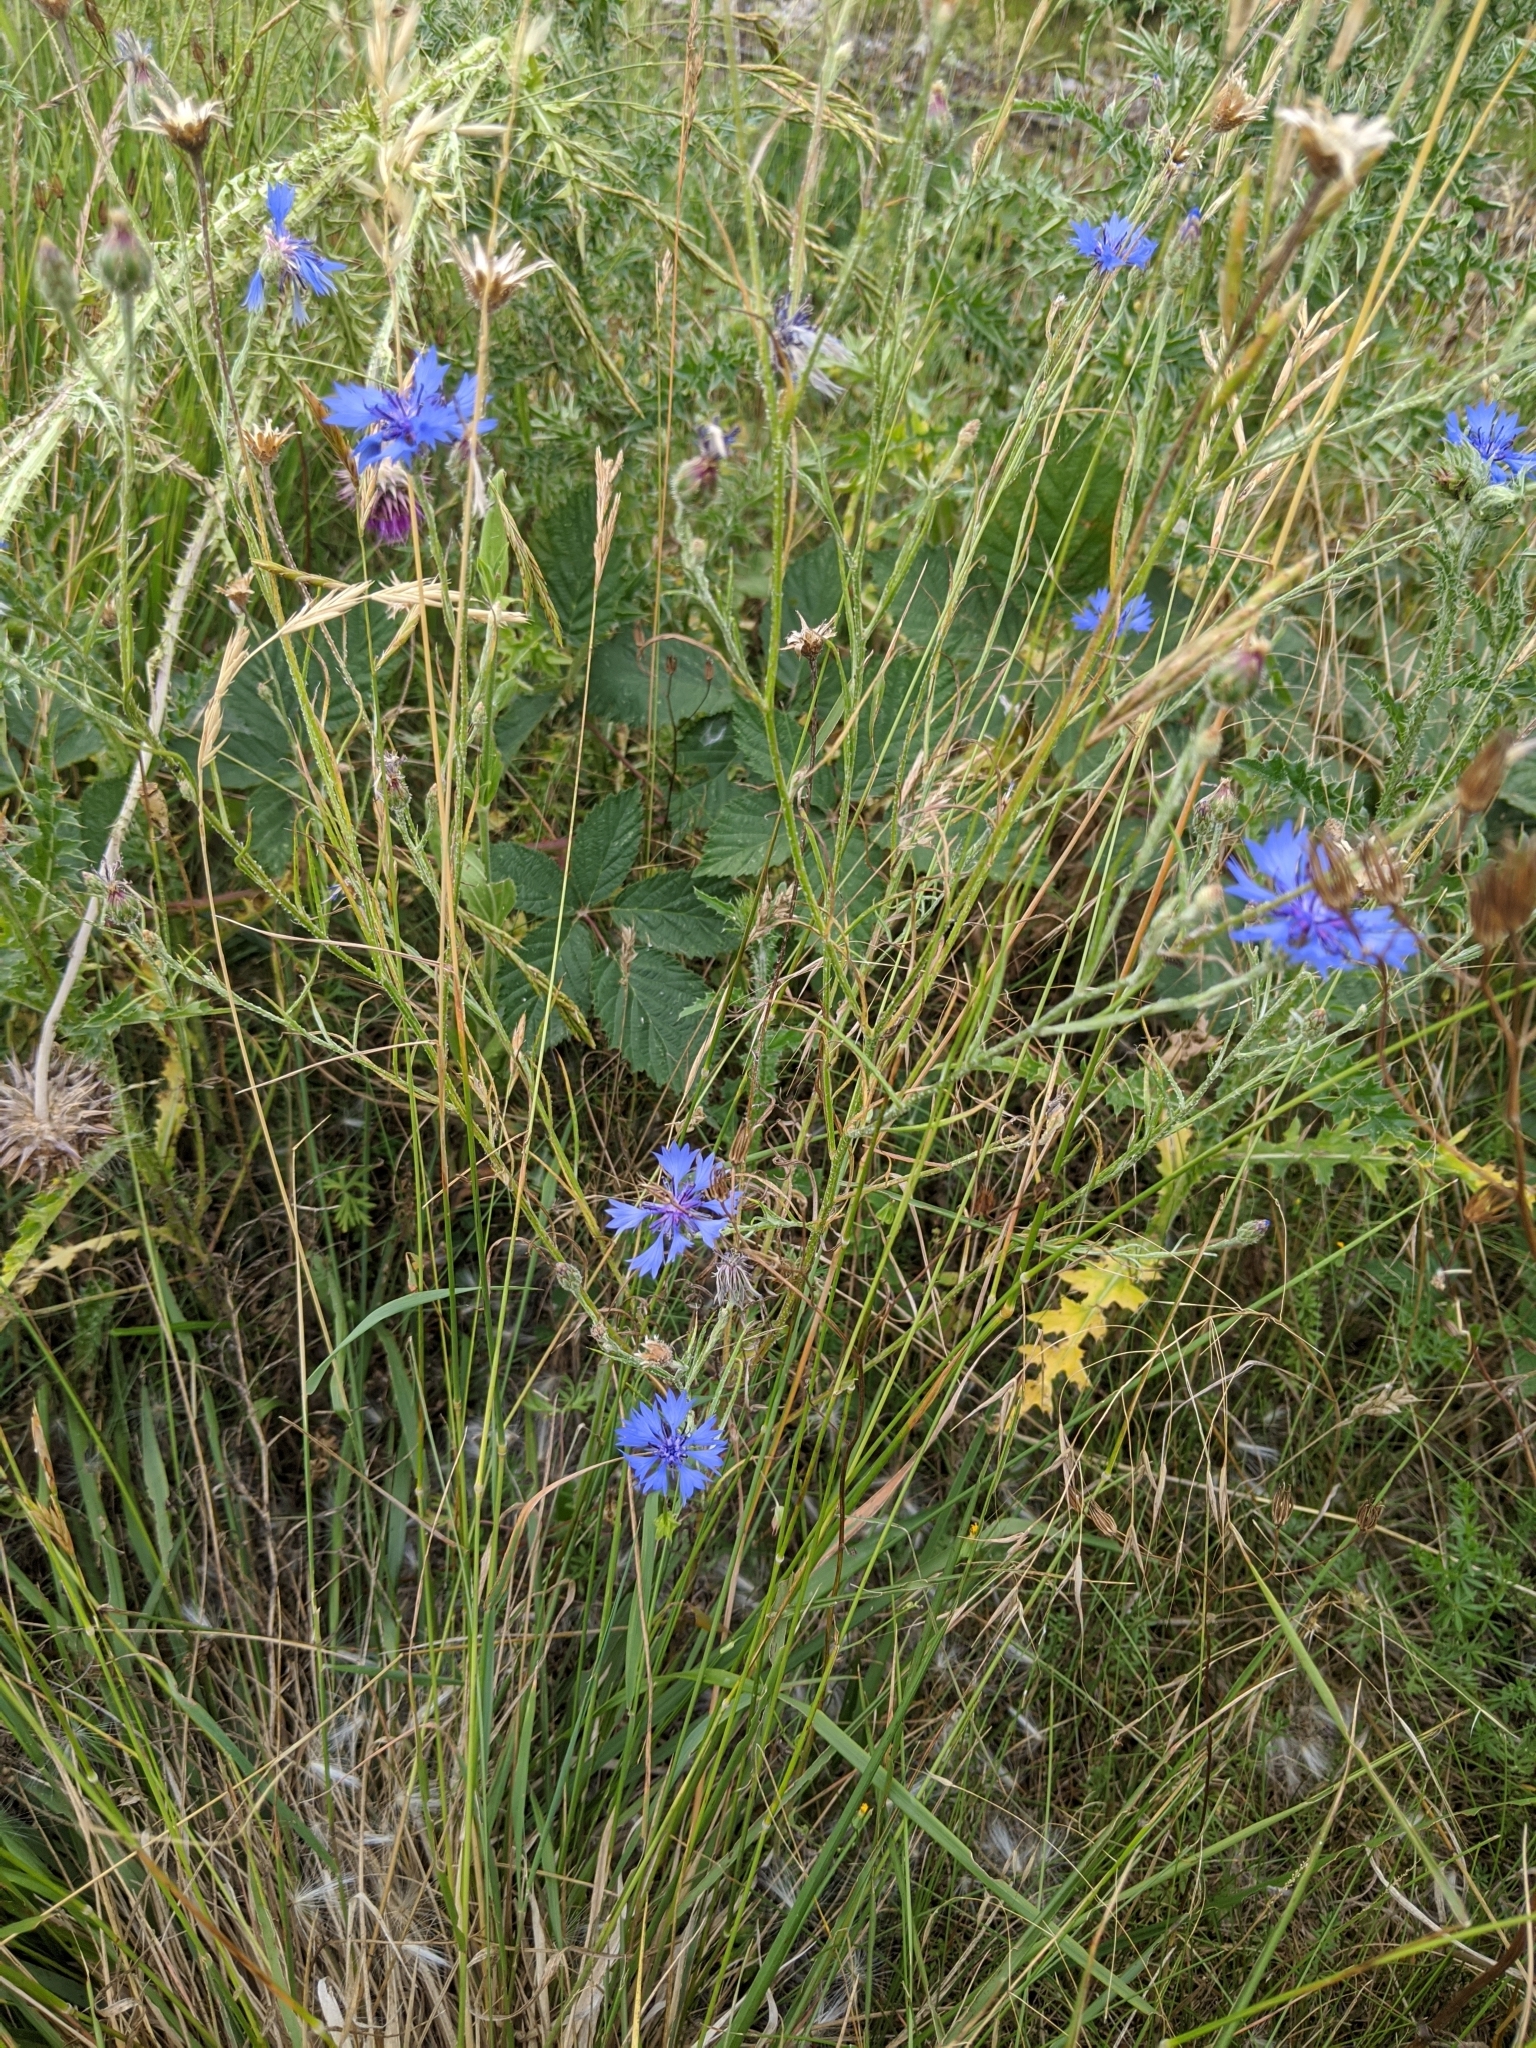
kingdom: Plantae
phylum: Tracheophyta
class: Magnoliopsida
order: Asterales
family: Asteraceae
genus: Centaurea
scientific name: Centaurea cyanus
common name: Cornflower
